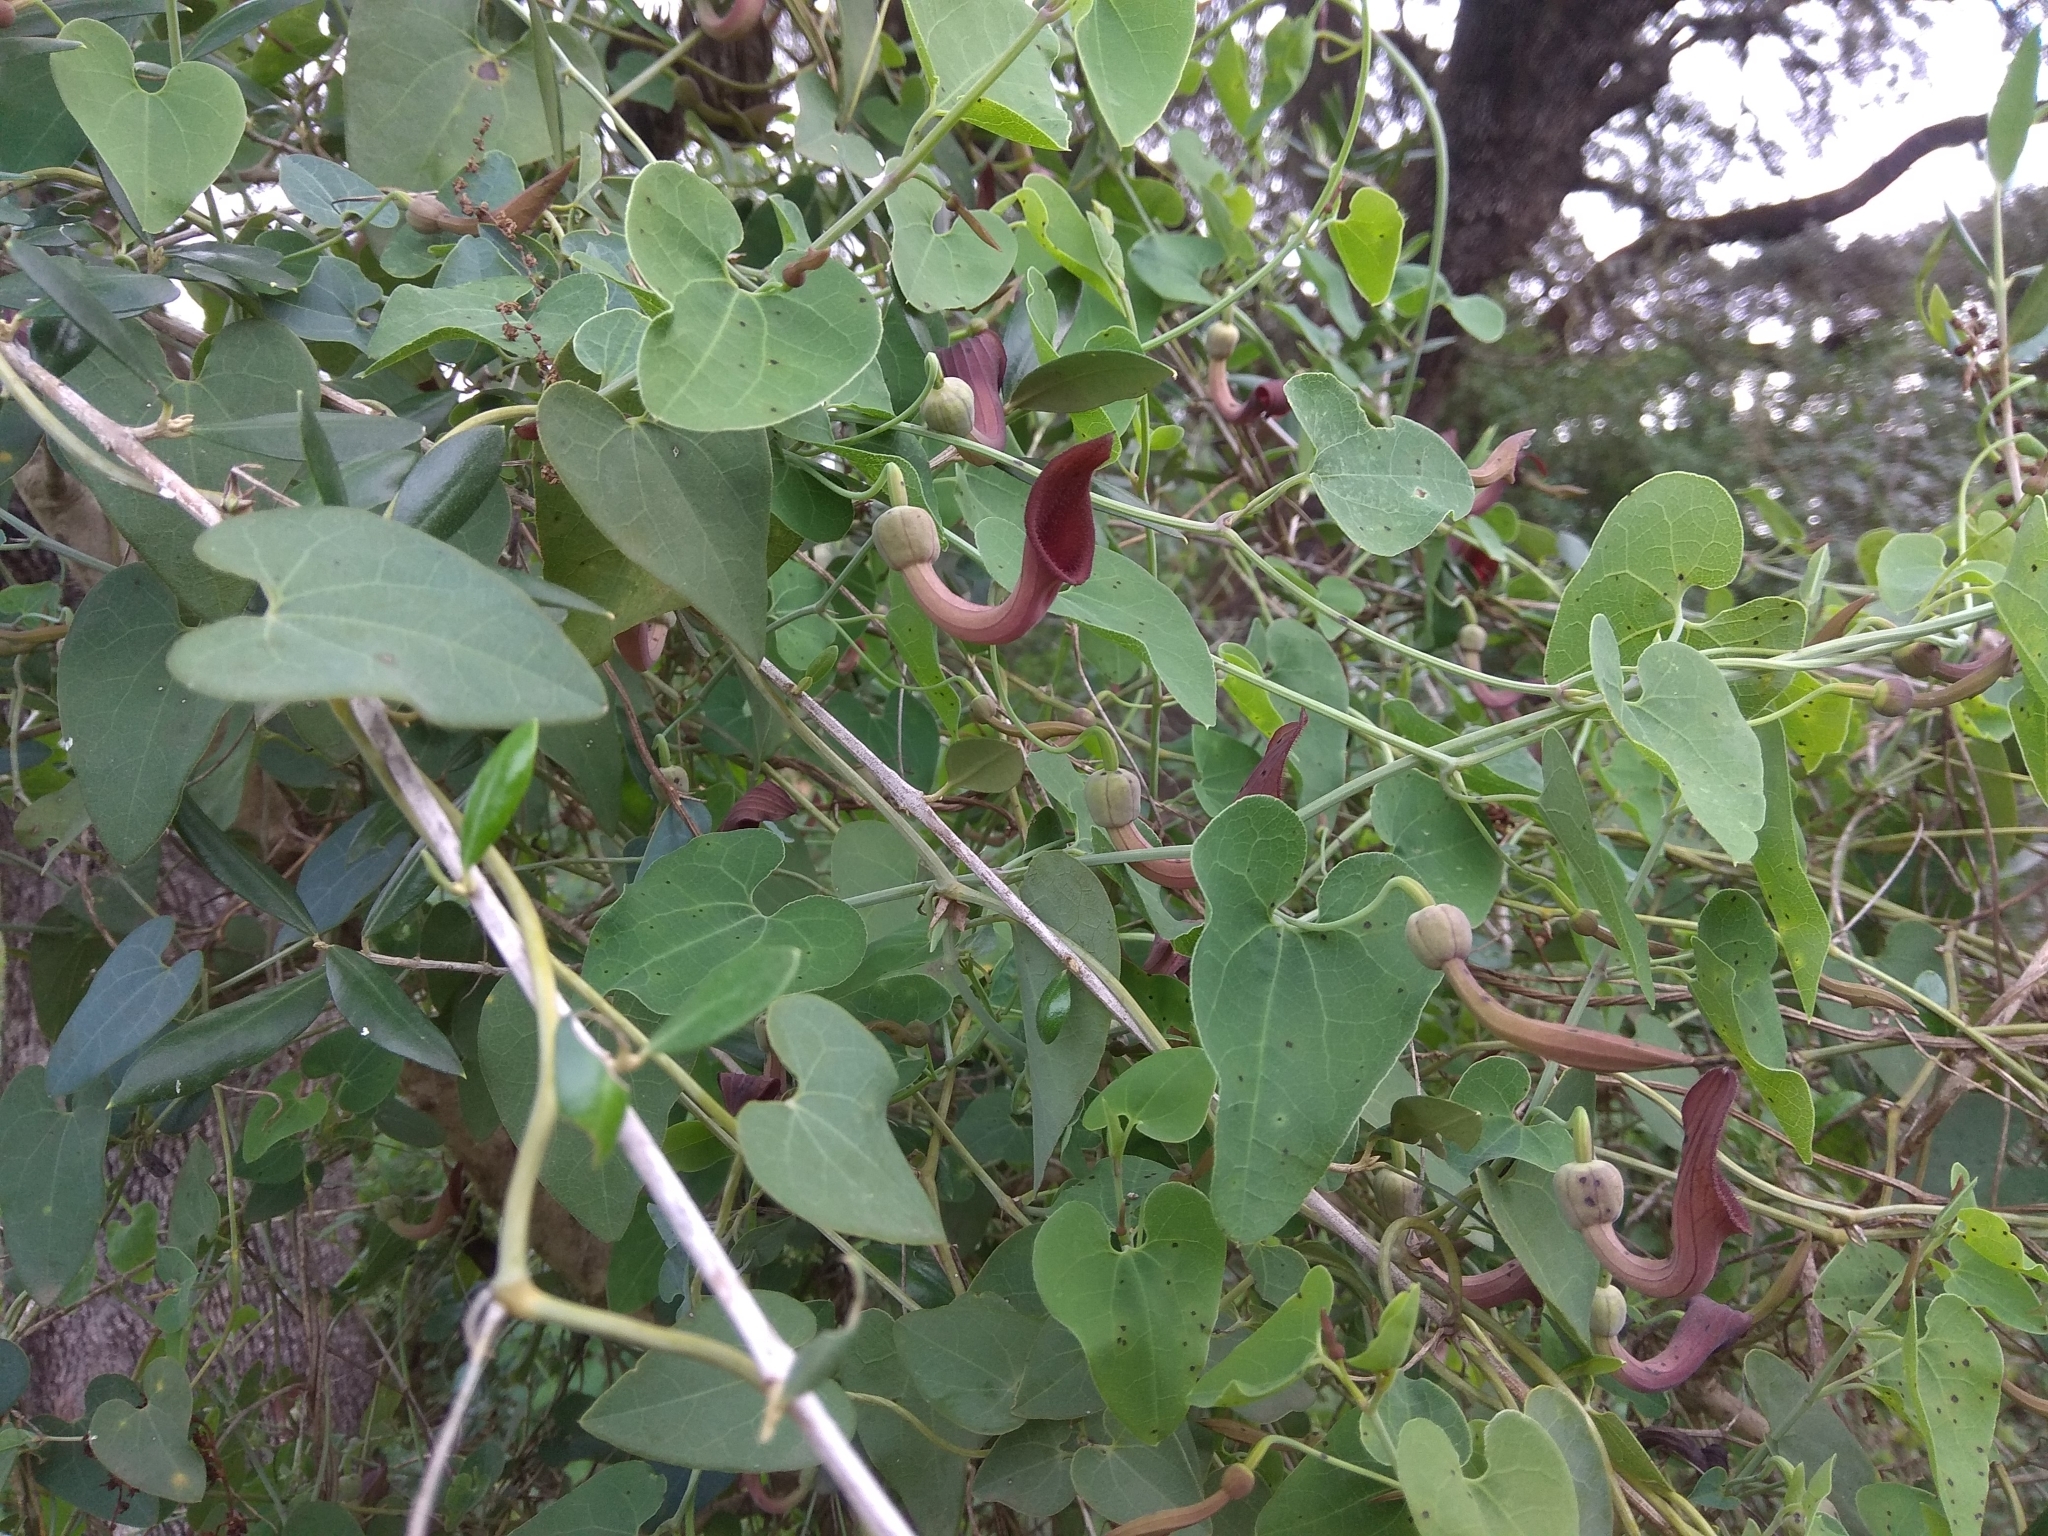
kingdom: Plantae
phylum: Tracheophyta
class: Magnoliopsida
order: Piperales
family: Aristolochiaceae
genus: Aristolochia
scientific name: Aristolochia baetica
